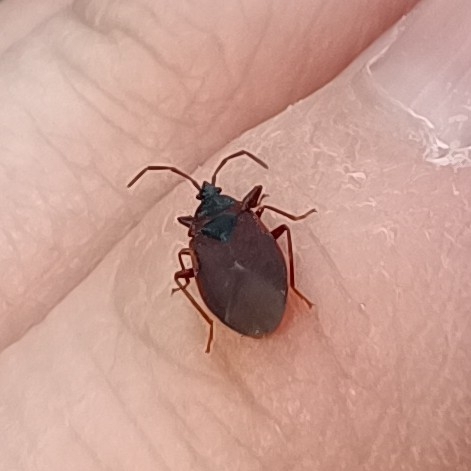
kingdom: Animalia
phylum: Arthropoda
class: Insecta
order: Hemiptera
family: Rhyparochromidae
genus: Gastrodes
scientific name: Gastrodes grossipes
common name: Pine cone bug
